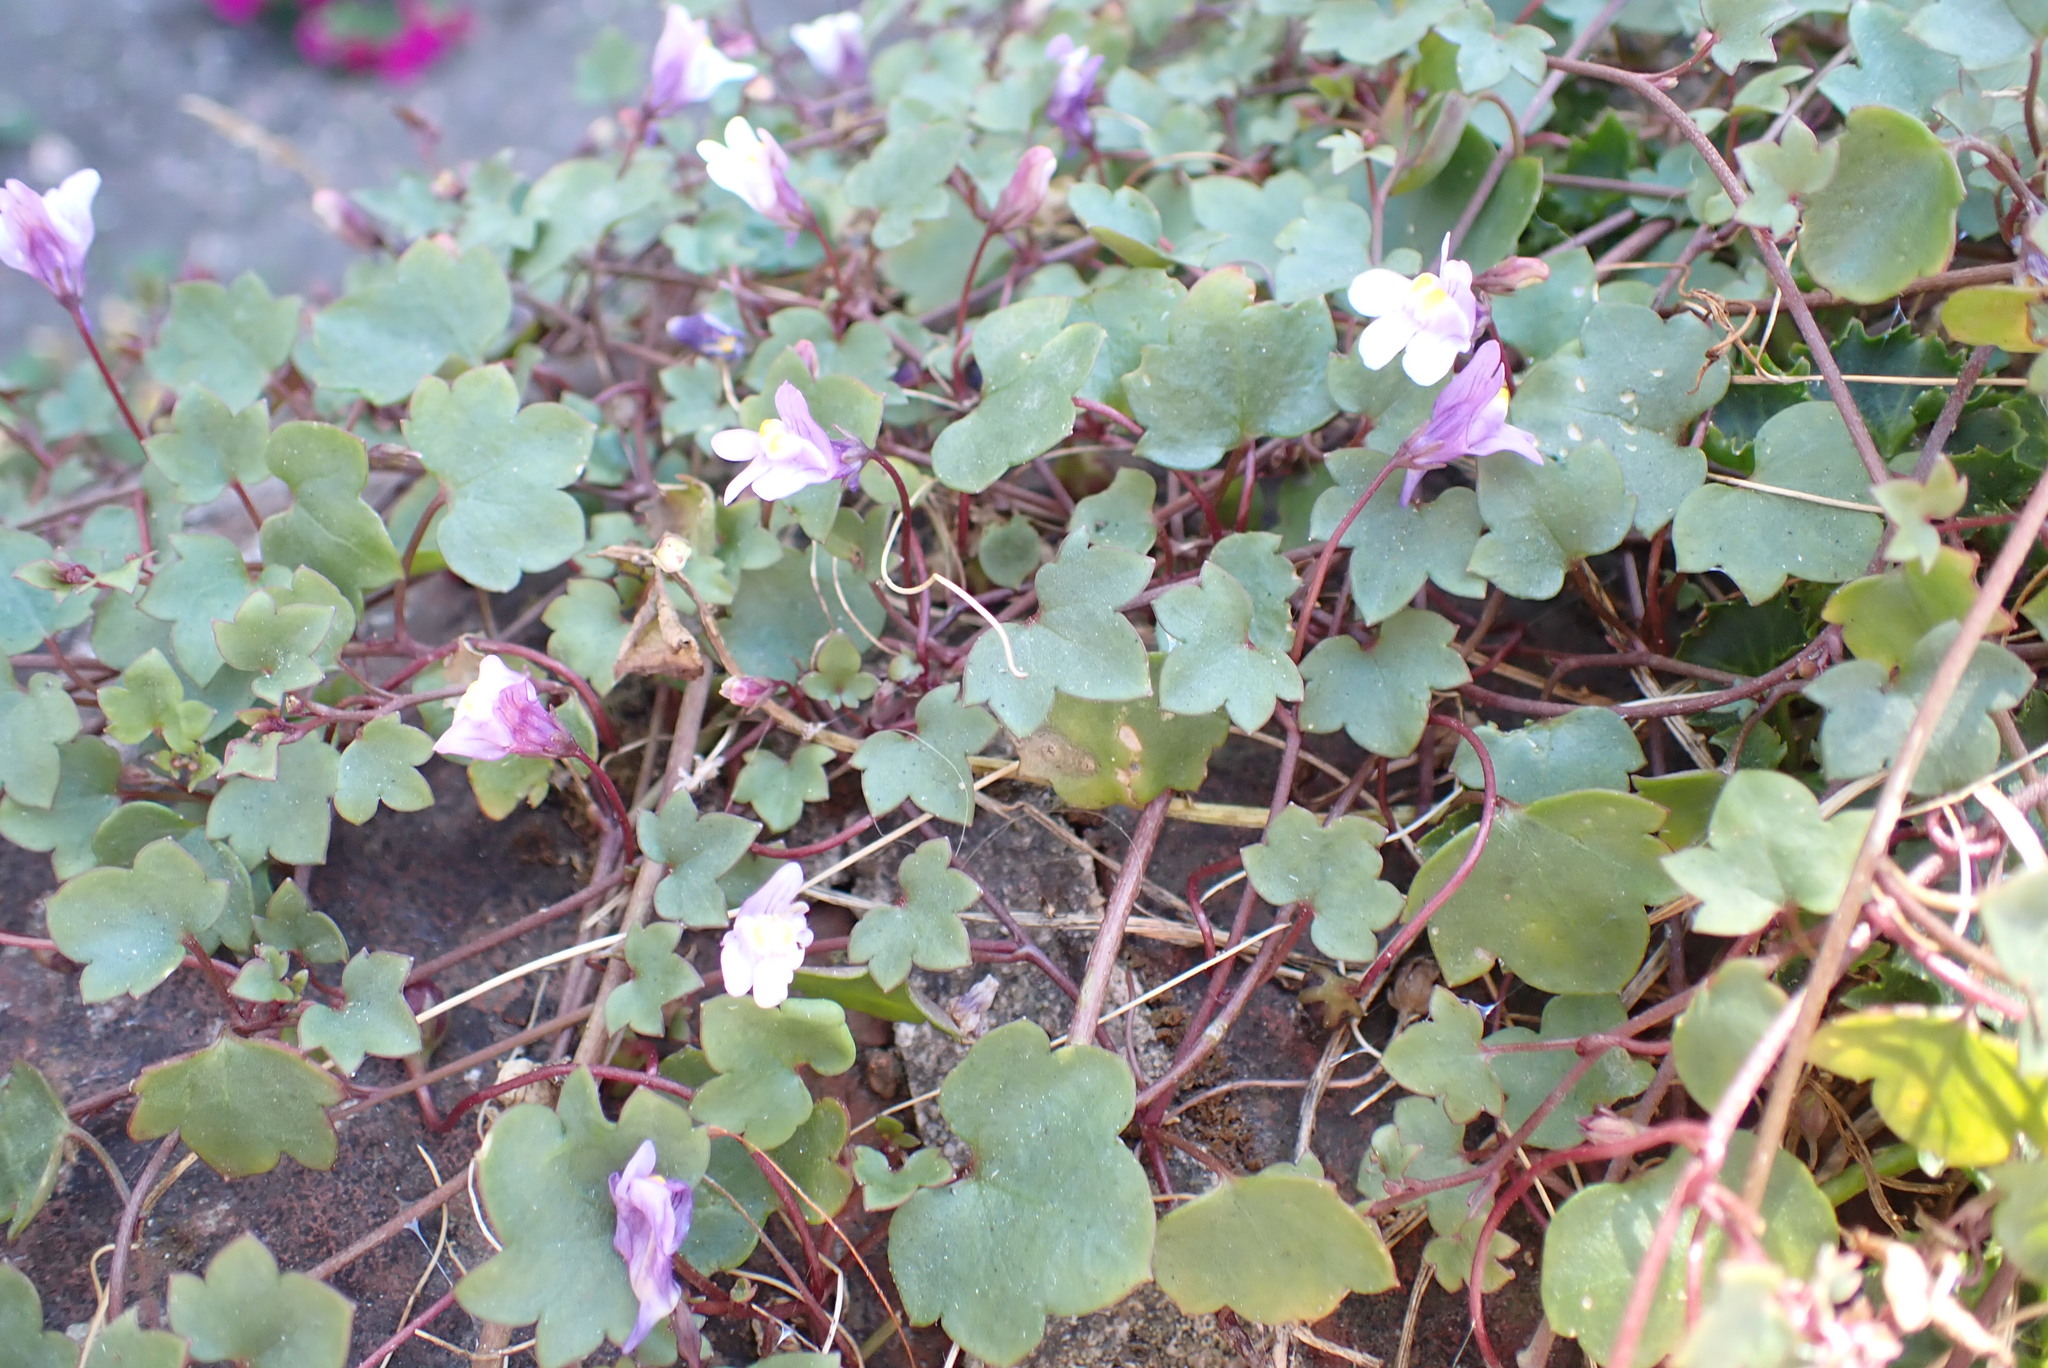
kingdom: Plantae
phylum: Tracheophyta
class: Magnoliopsida
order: Lamiales
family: Plantaginaceae
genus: Cymbalaria
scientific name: Cymbalaria muralis
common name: Ivy-leaved toadflax
